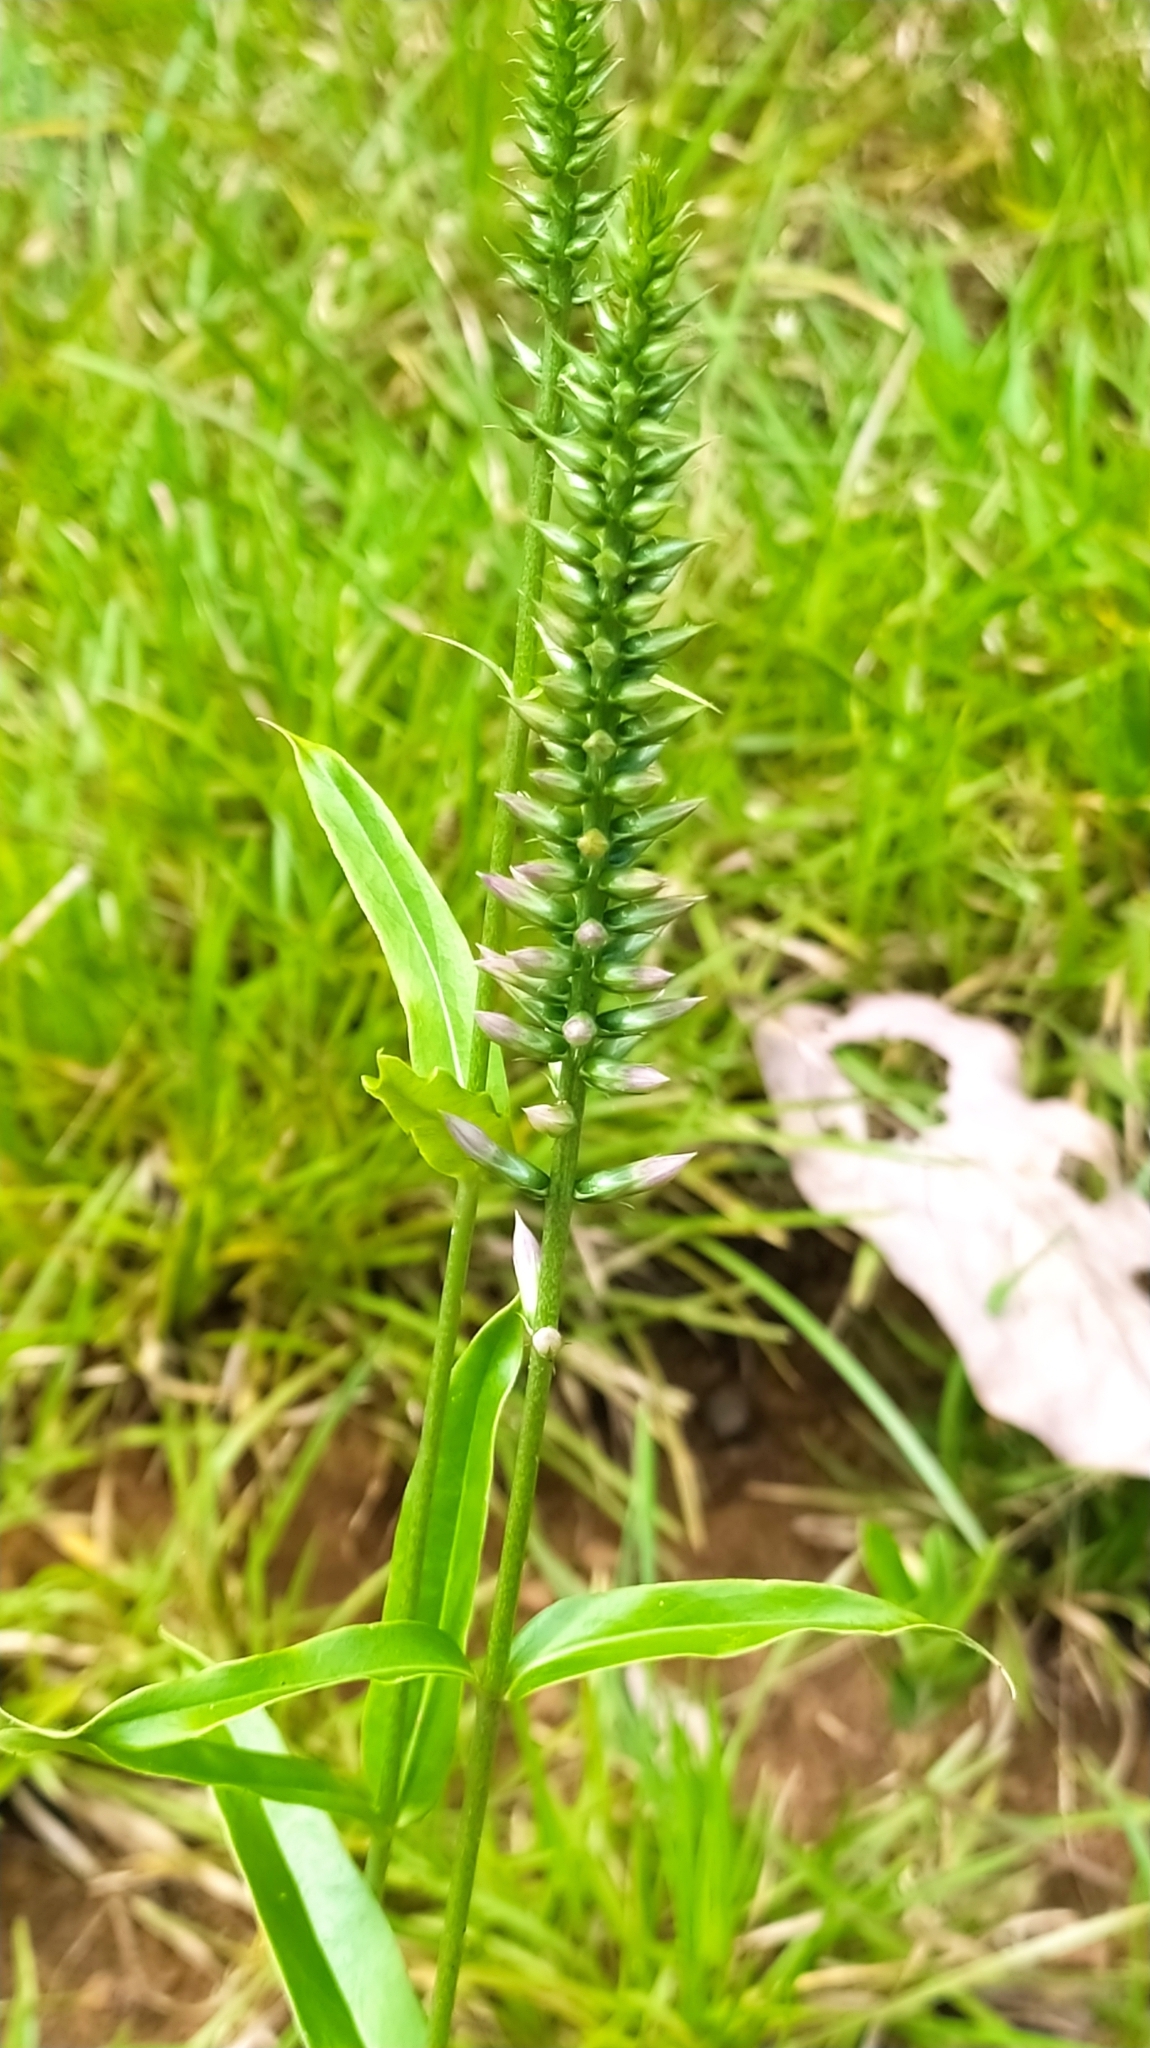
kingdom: Plantae
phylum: Tracheophyta
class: Magnoliopsida
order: Gentianales
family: Gentianaceae
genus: Coutoubea
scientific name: Coutoubea spicata
